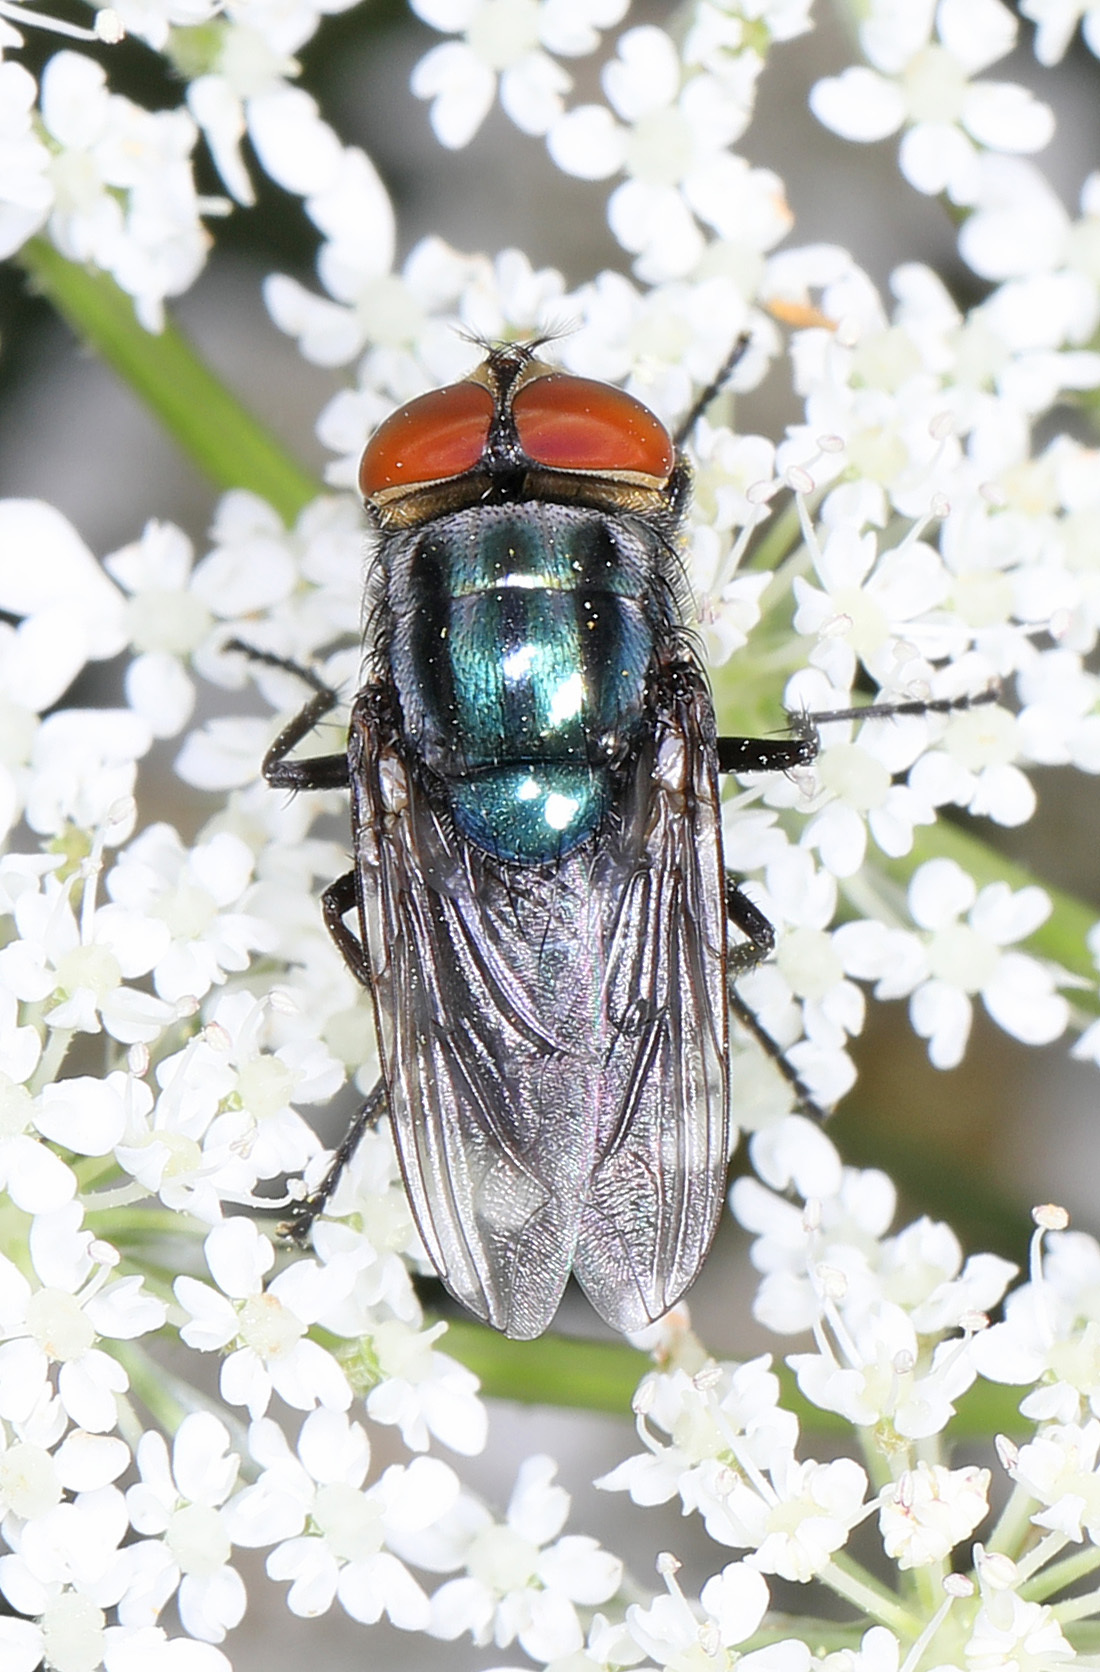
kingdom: Animalia
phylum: Arthropoda
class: Insecta
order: Diptera
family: Calliphoridae
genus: Cochliomyia
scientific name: Cochliomyia macellaria
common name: Secondary screwworm
